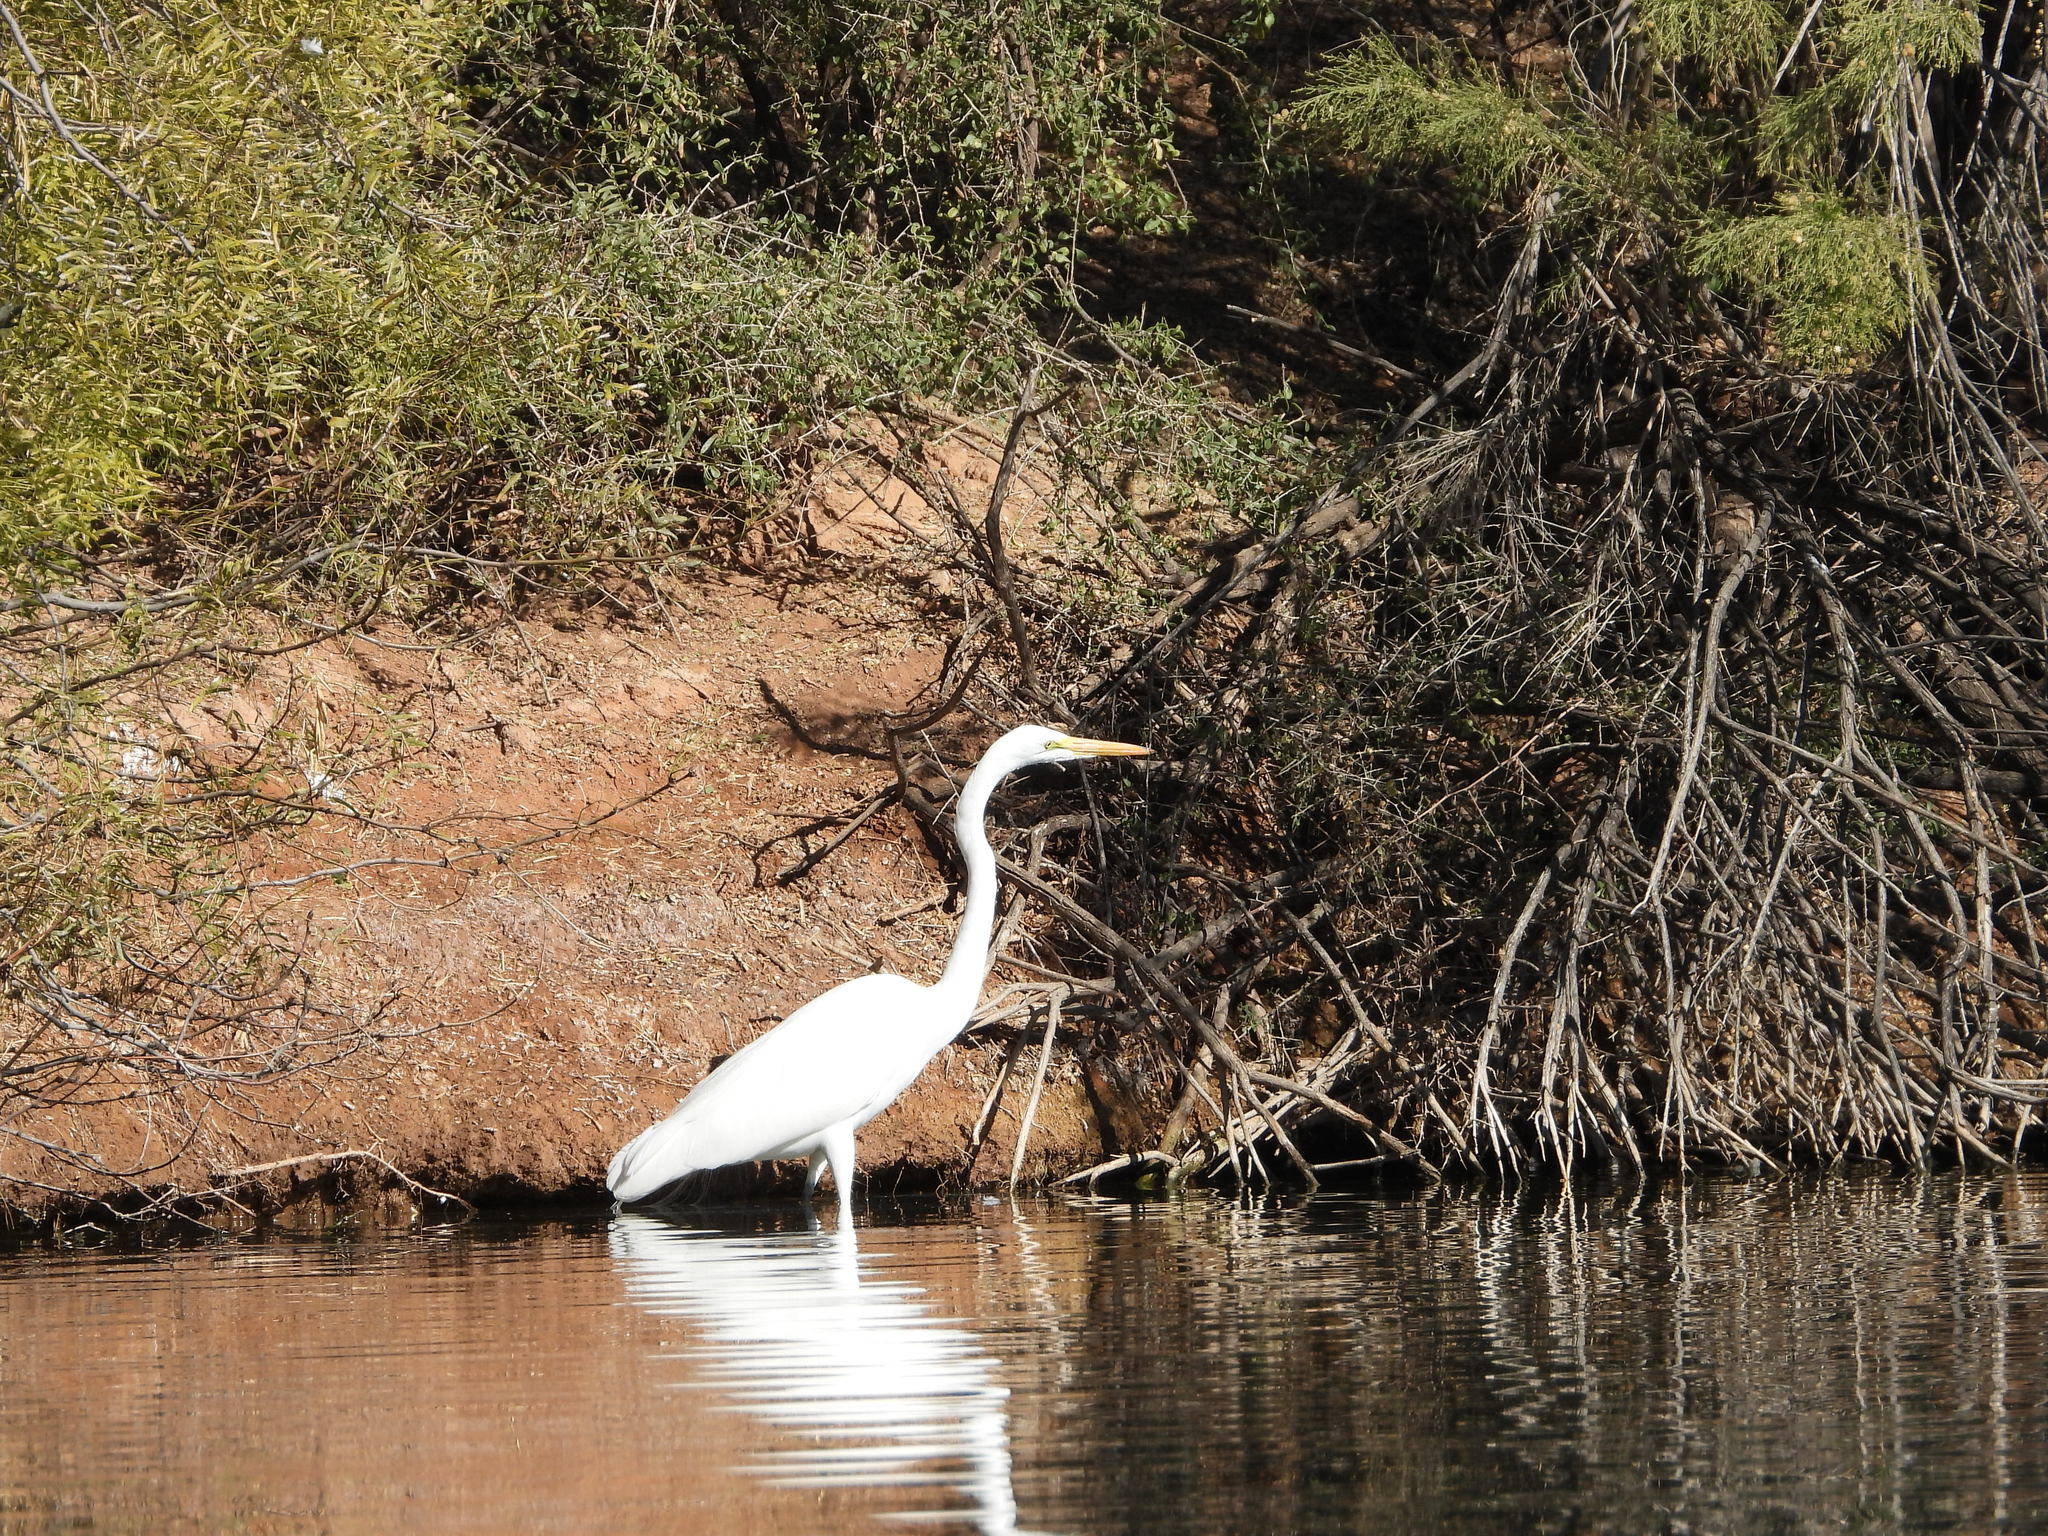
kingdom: Animalia
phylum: Chordata
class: Aves
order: Pelecaniformes
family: Ardeidae
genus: Ardea
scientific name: Ardea alba
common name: Great egret
